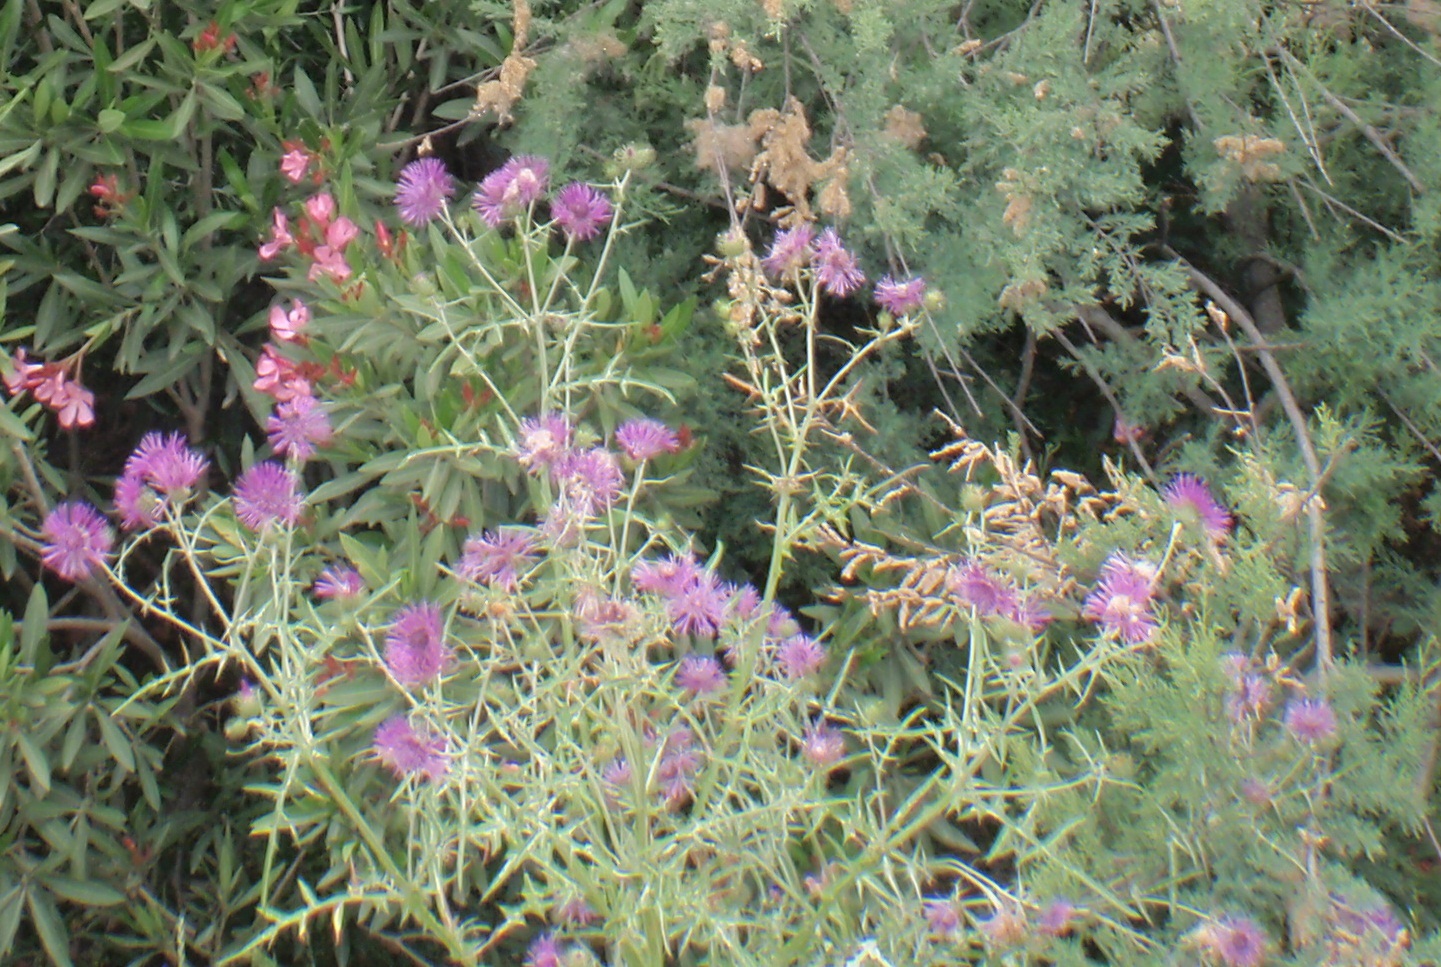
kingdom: Plantae
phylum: Tracheophyta
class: Magnoliopsida
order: Asterales
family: Asteraceae
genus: Galactites
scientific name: Galactites tomentosa
